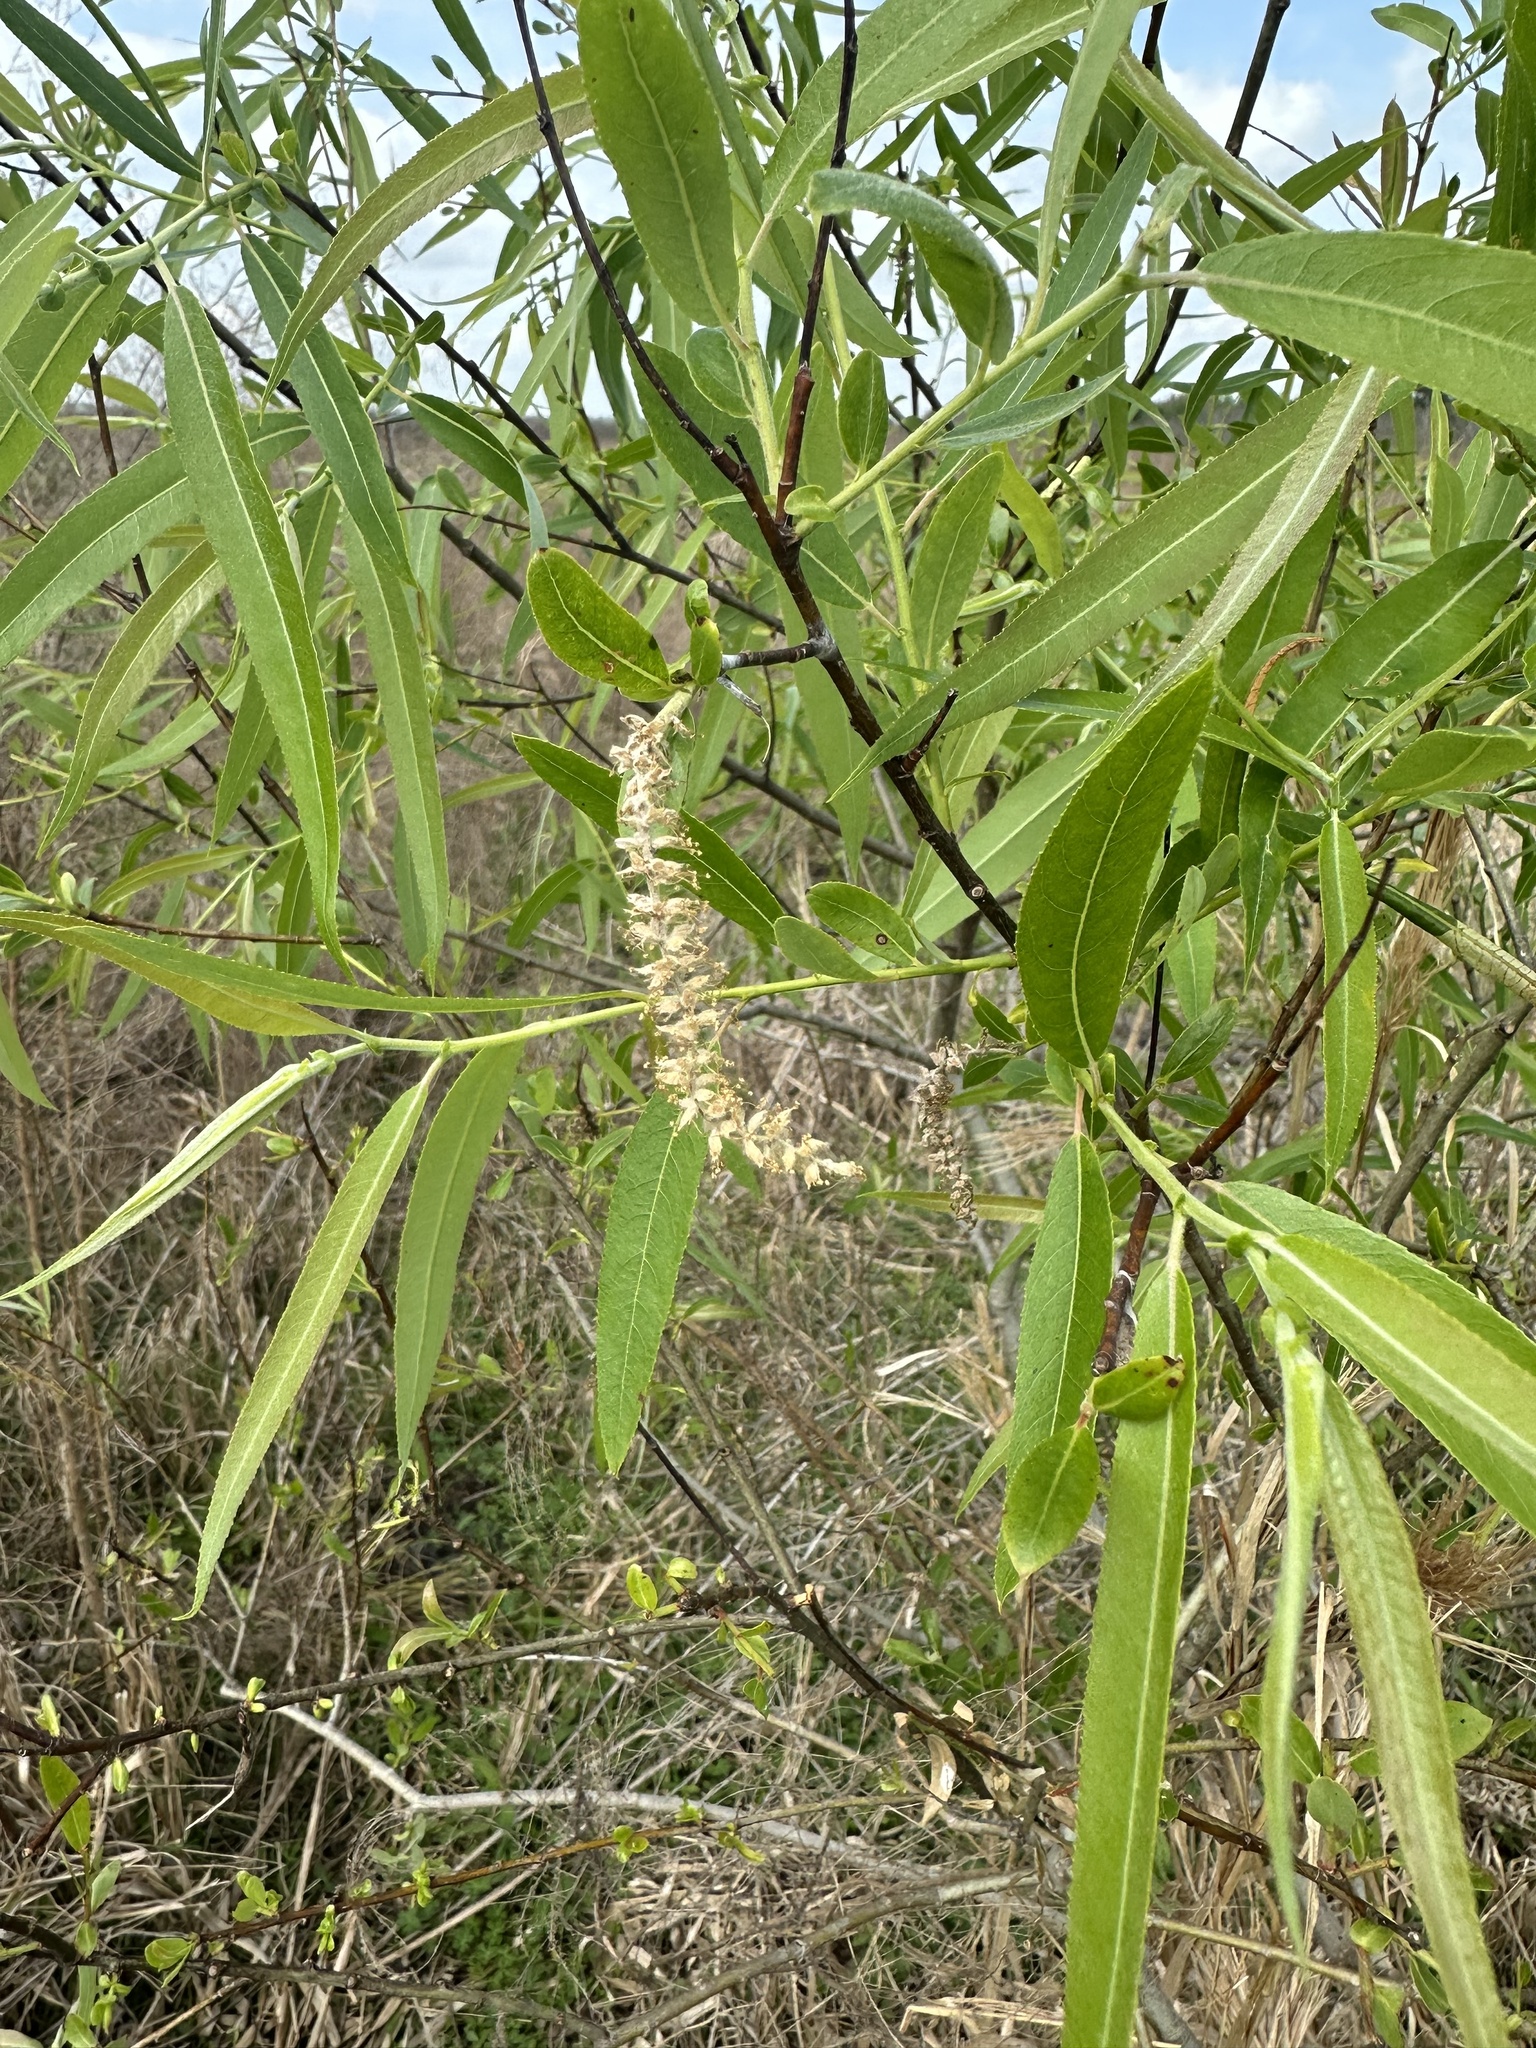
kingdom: Plantae
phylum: Tracheophyta
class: Magnoliopsida
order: Malpighiales
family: Salicaceae
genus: Salix
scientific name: Salix caroliniana
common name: Carolina willow
